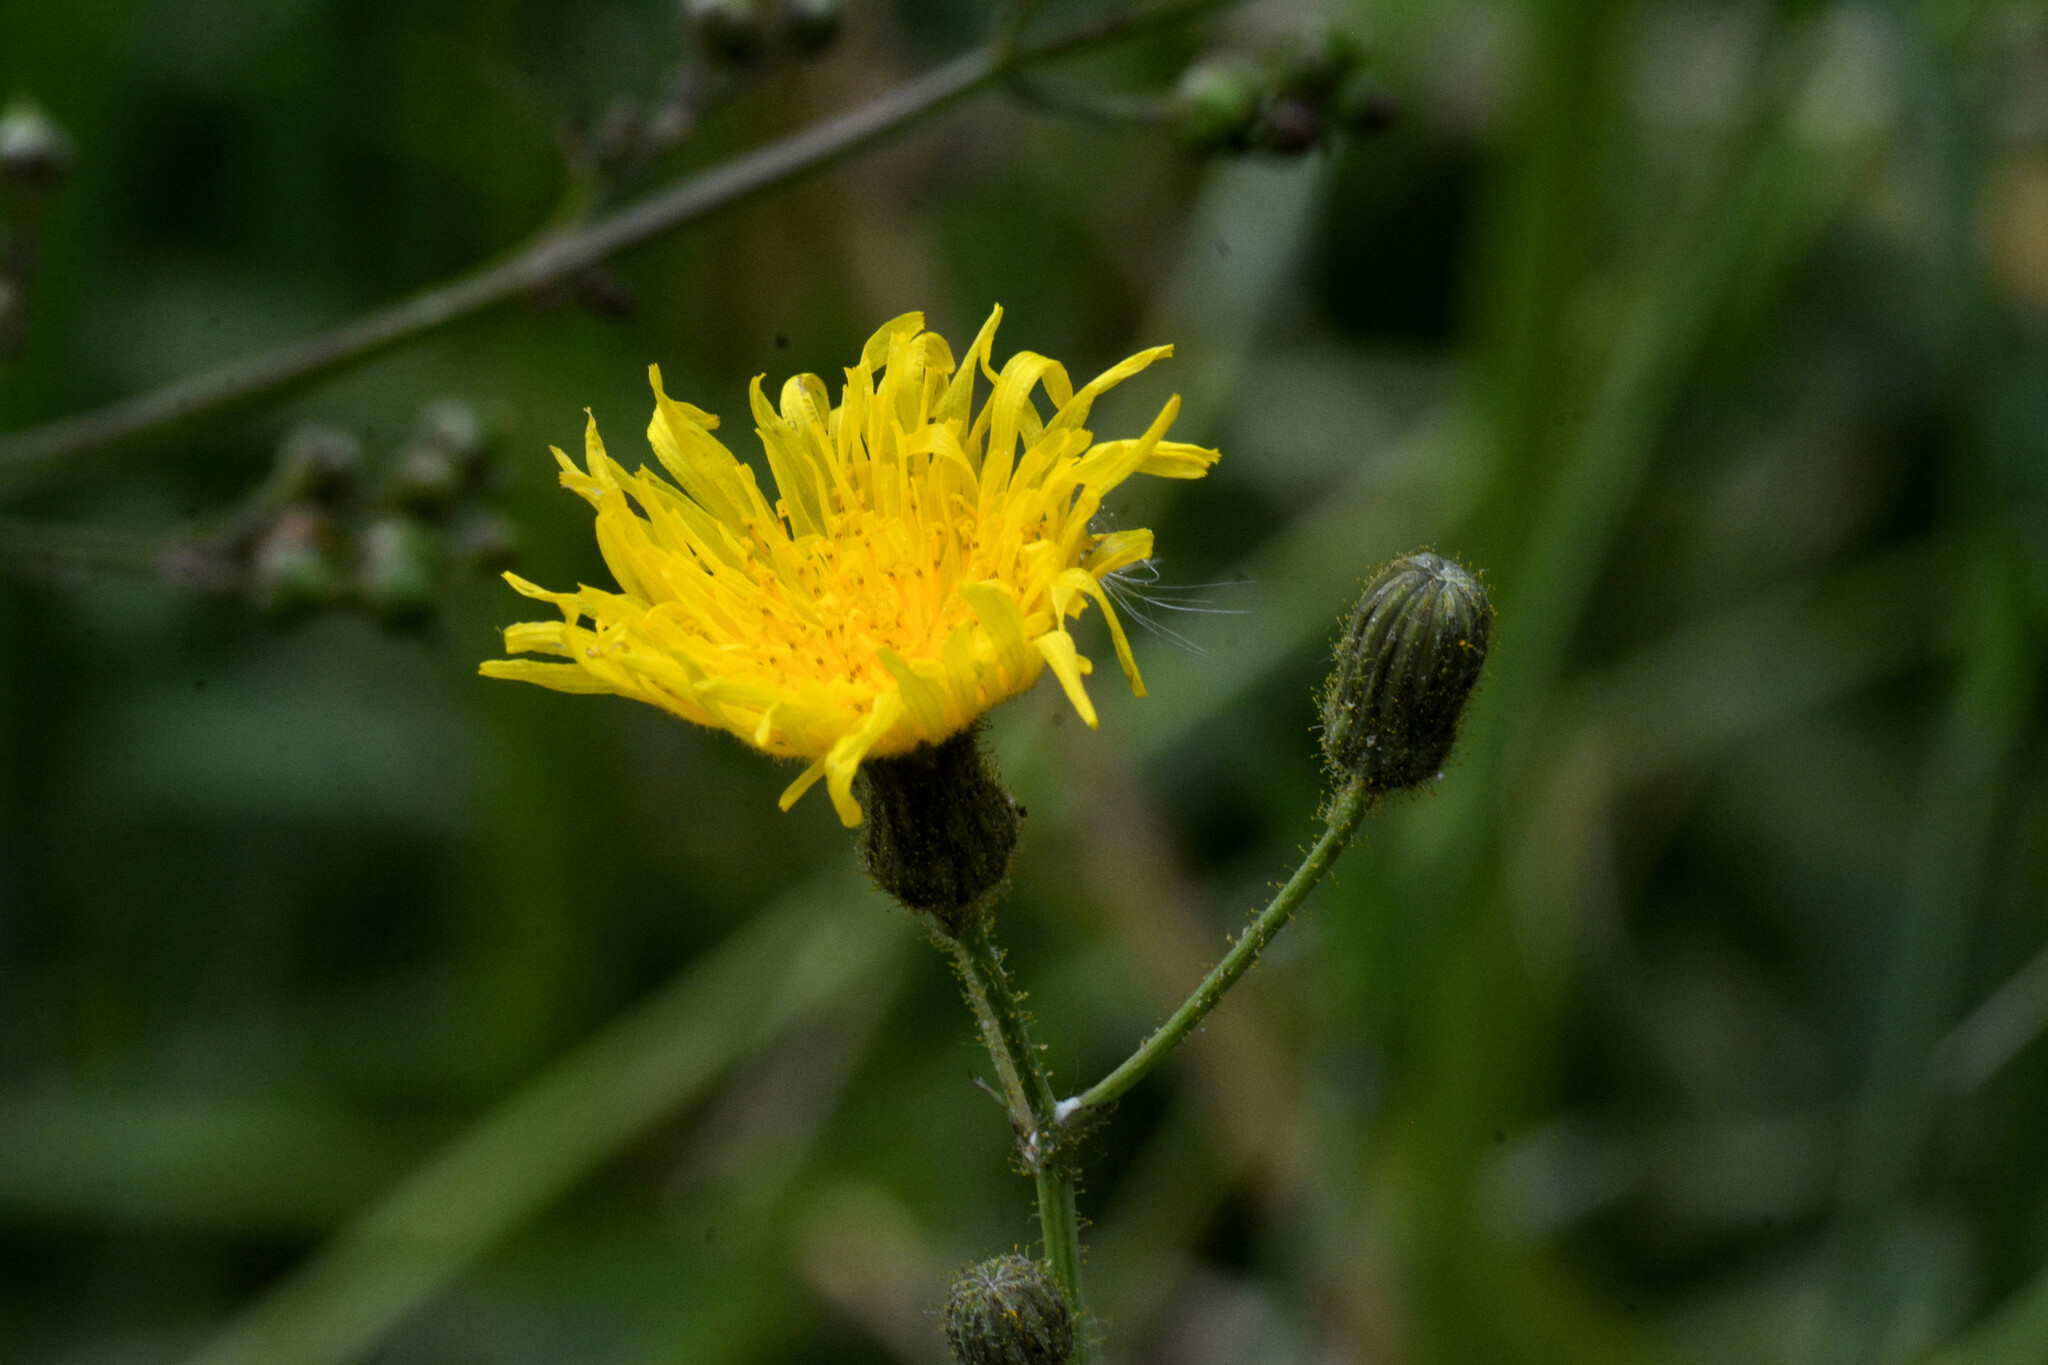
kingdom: Plantae
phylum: Tracheophyta
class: Magnoliopsida
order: Asterales
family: Asteraceae
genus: Sonchus
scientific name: Sonchus arvensis
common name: Perennial sow-thistle
